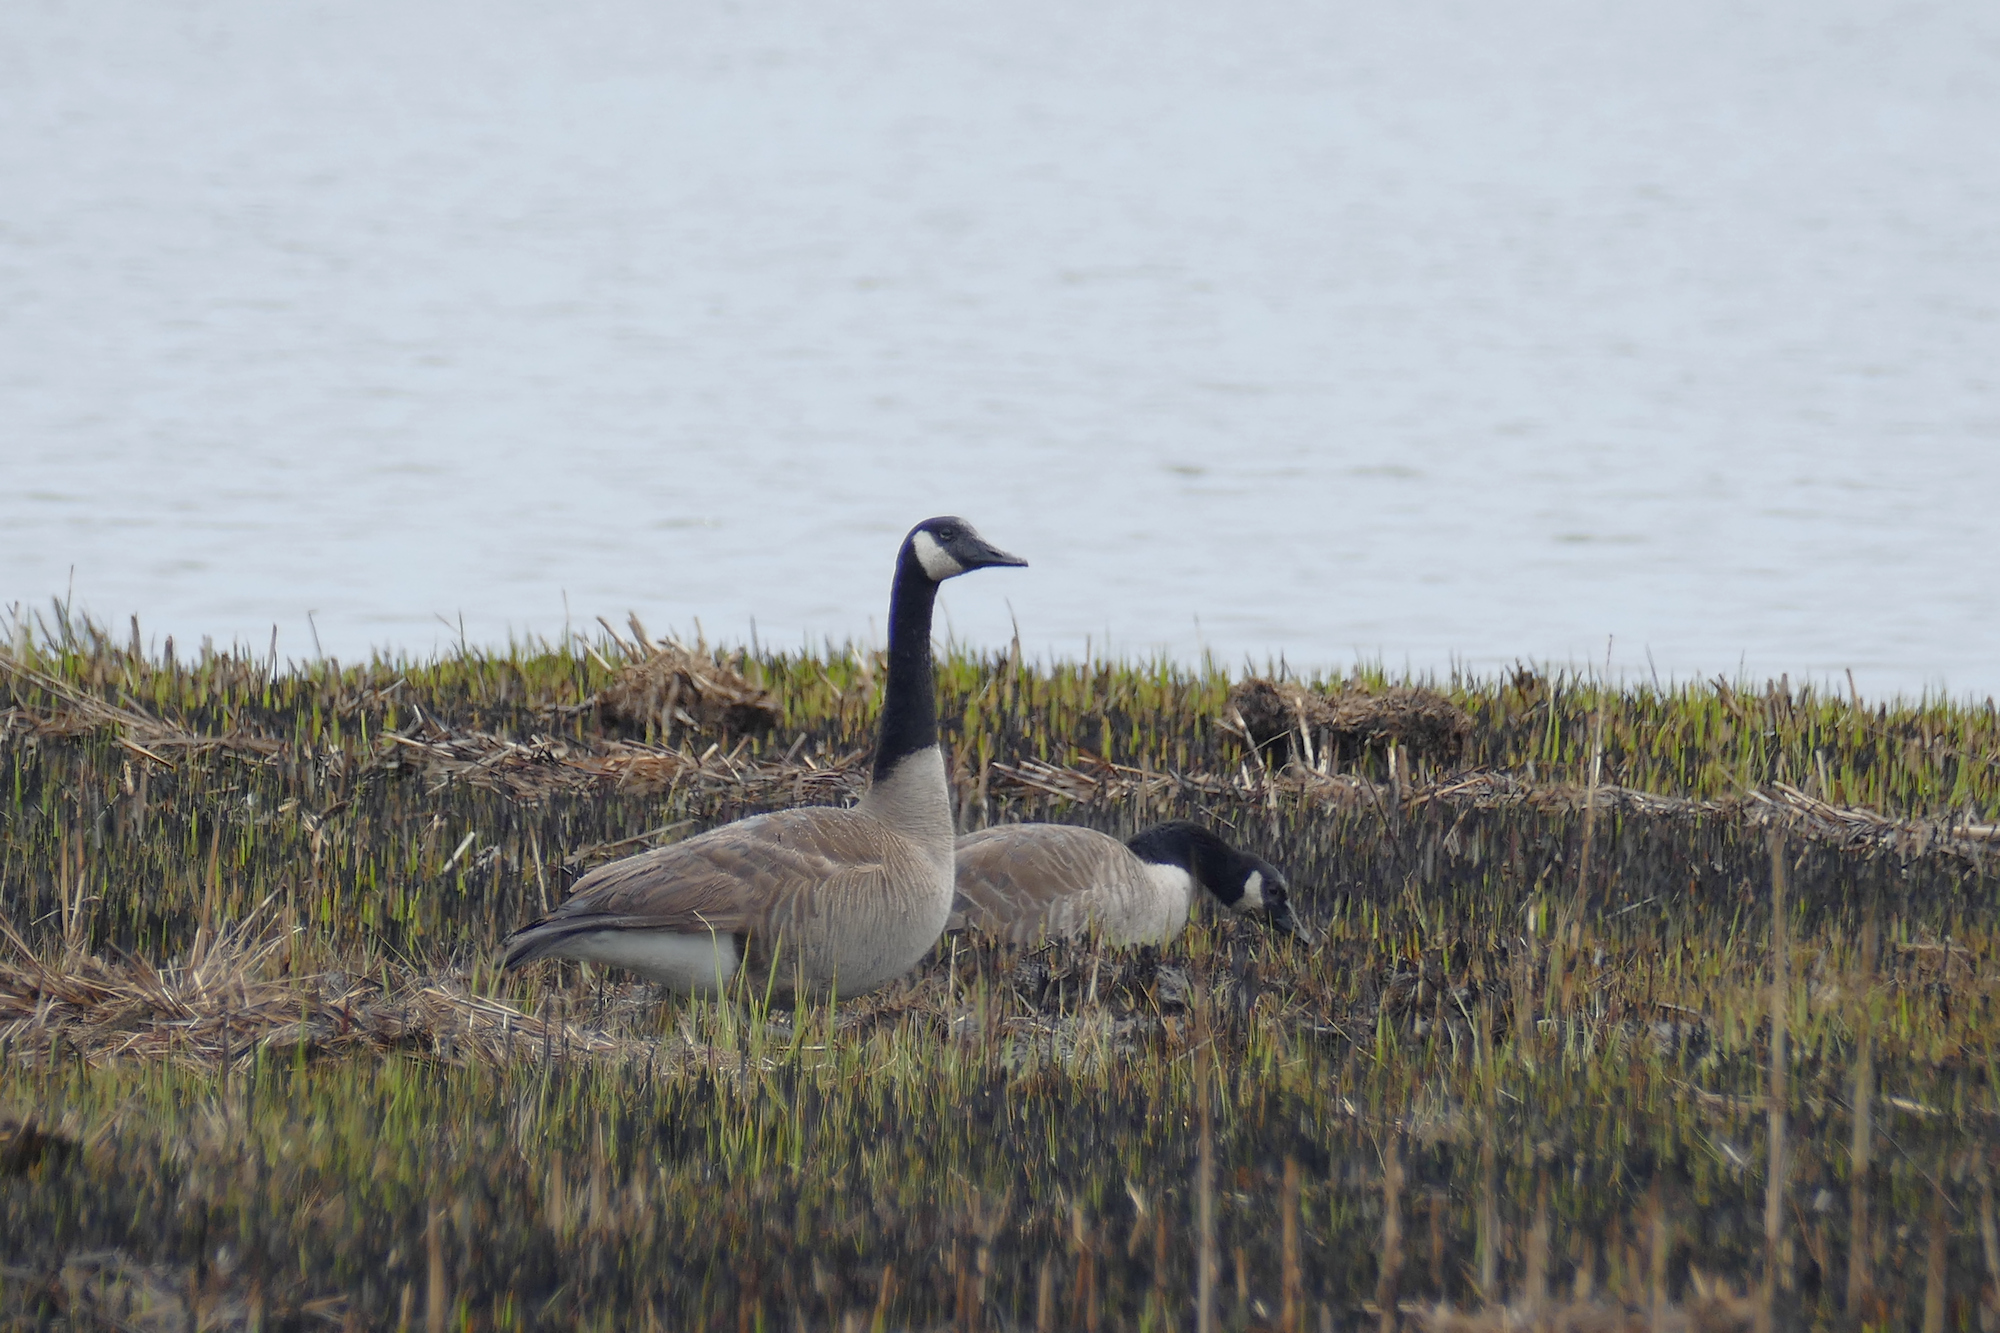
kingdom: Animalia
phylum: Chordata
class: Aves
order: Anseriformes
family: Anatidae
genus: Branta
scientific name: Branta canadensis
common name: Canada goose
